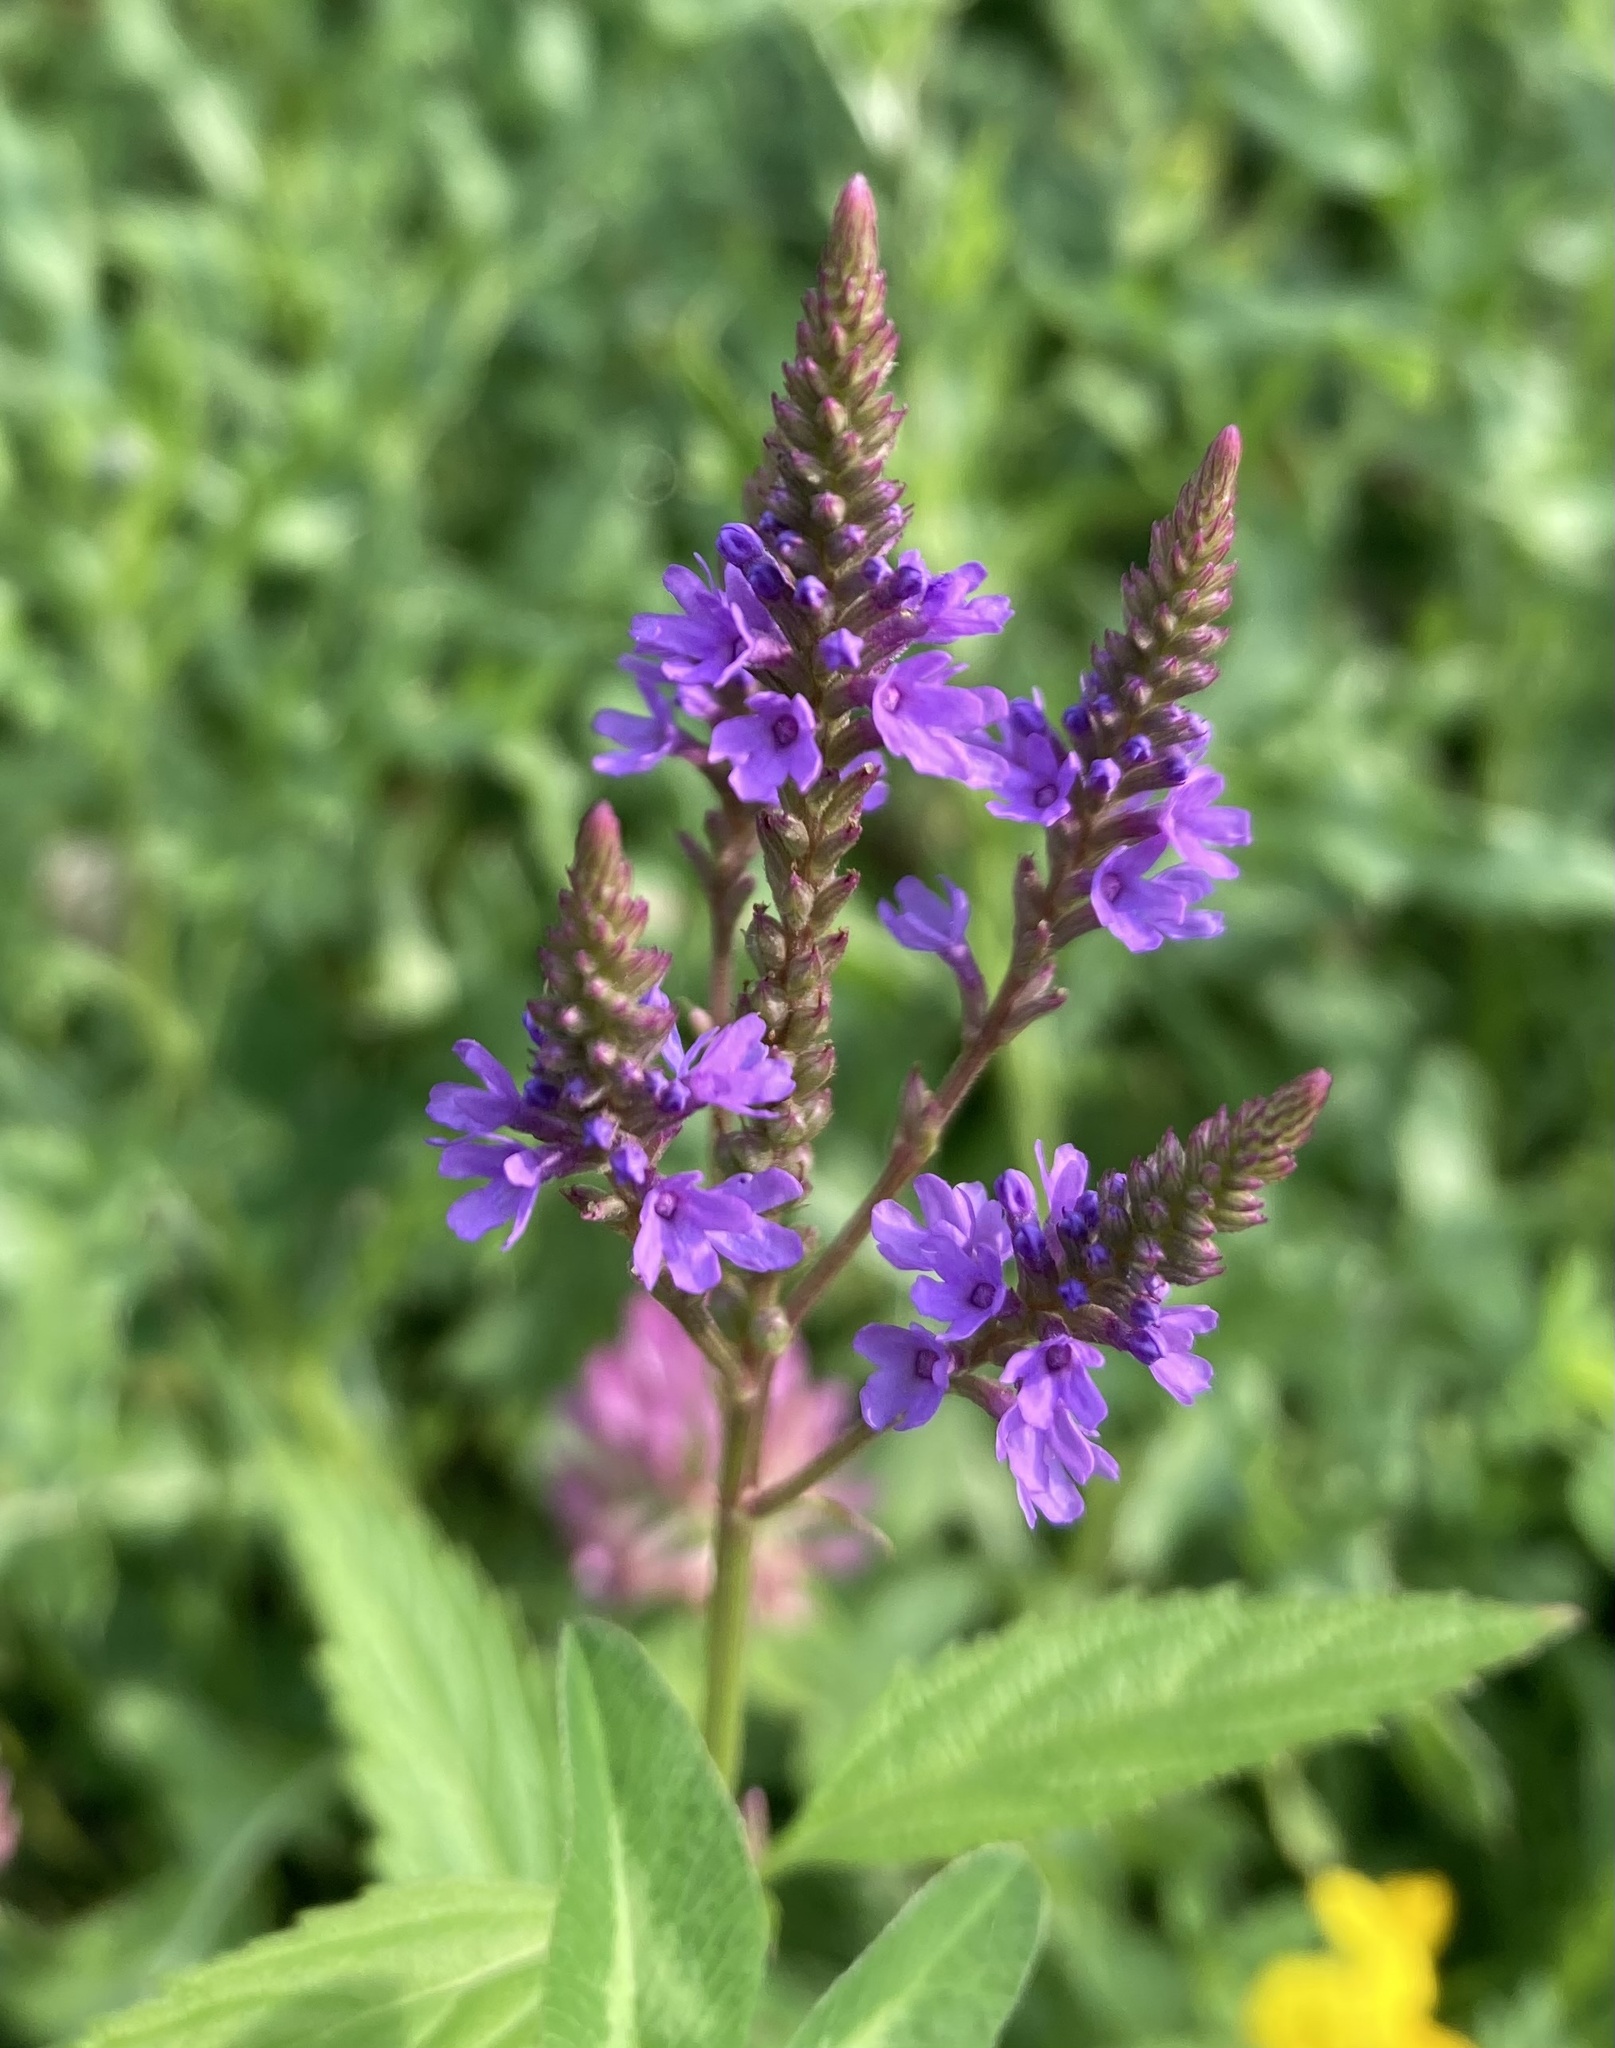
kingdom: Plantae
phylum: Tracheophyta
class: Magnoliopsida
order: Lamiales
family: Verbenaceae
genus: Verbena
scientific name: Verbena hastata
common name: American blue vervain
